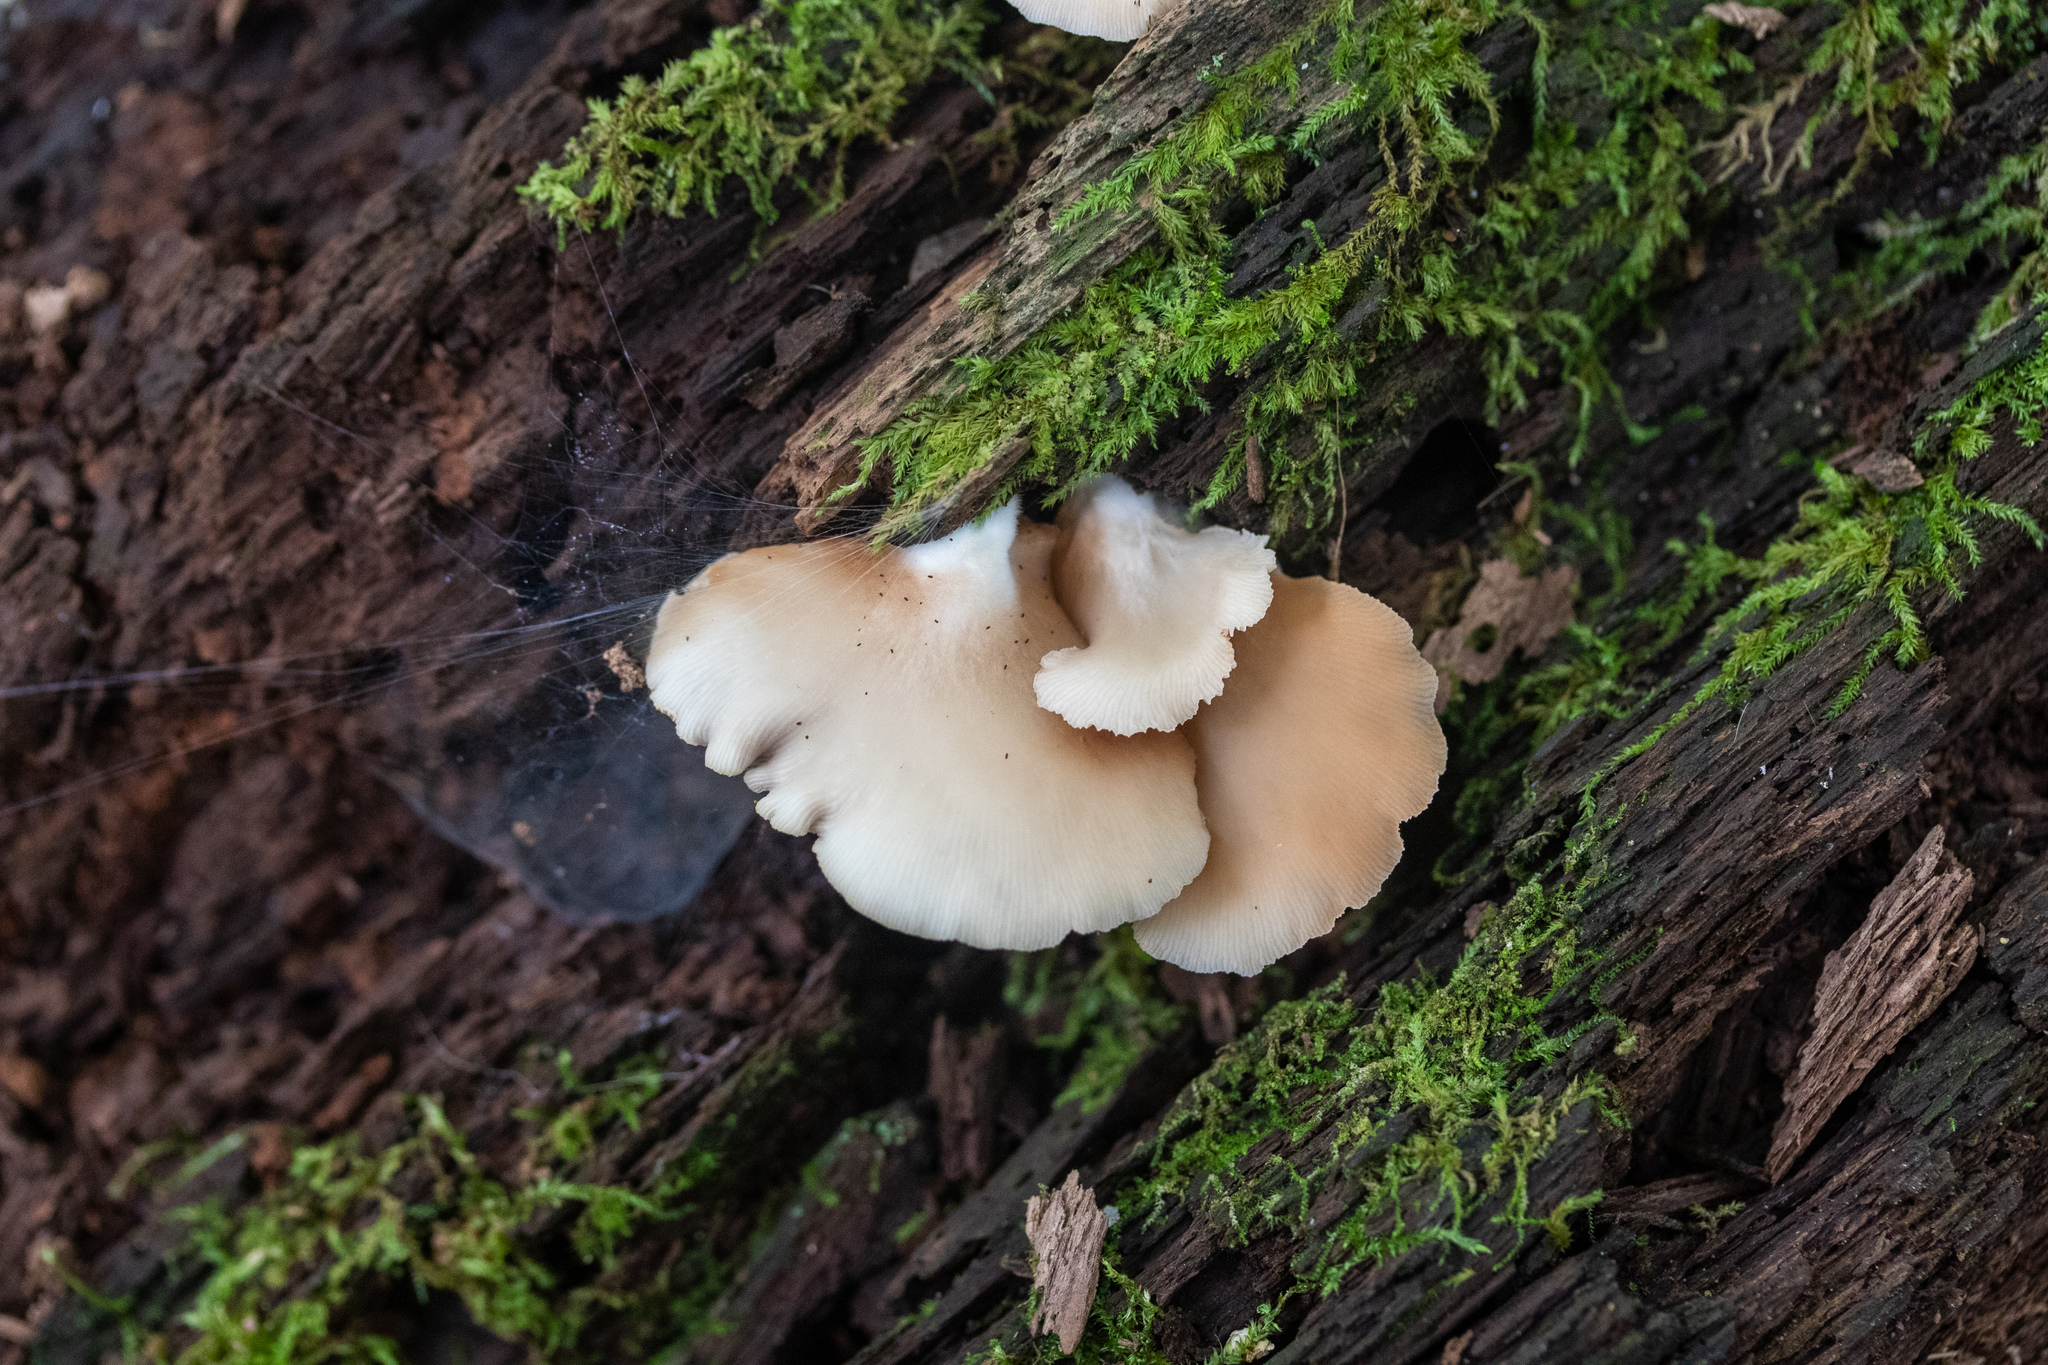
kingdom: Fungi
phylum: Basidiomycota
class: Agaricomycetes
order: Agaricales
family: Crepidotaceae
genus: Crepidotus
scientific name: Crepidotus applanatus
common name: Flat crep
